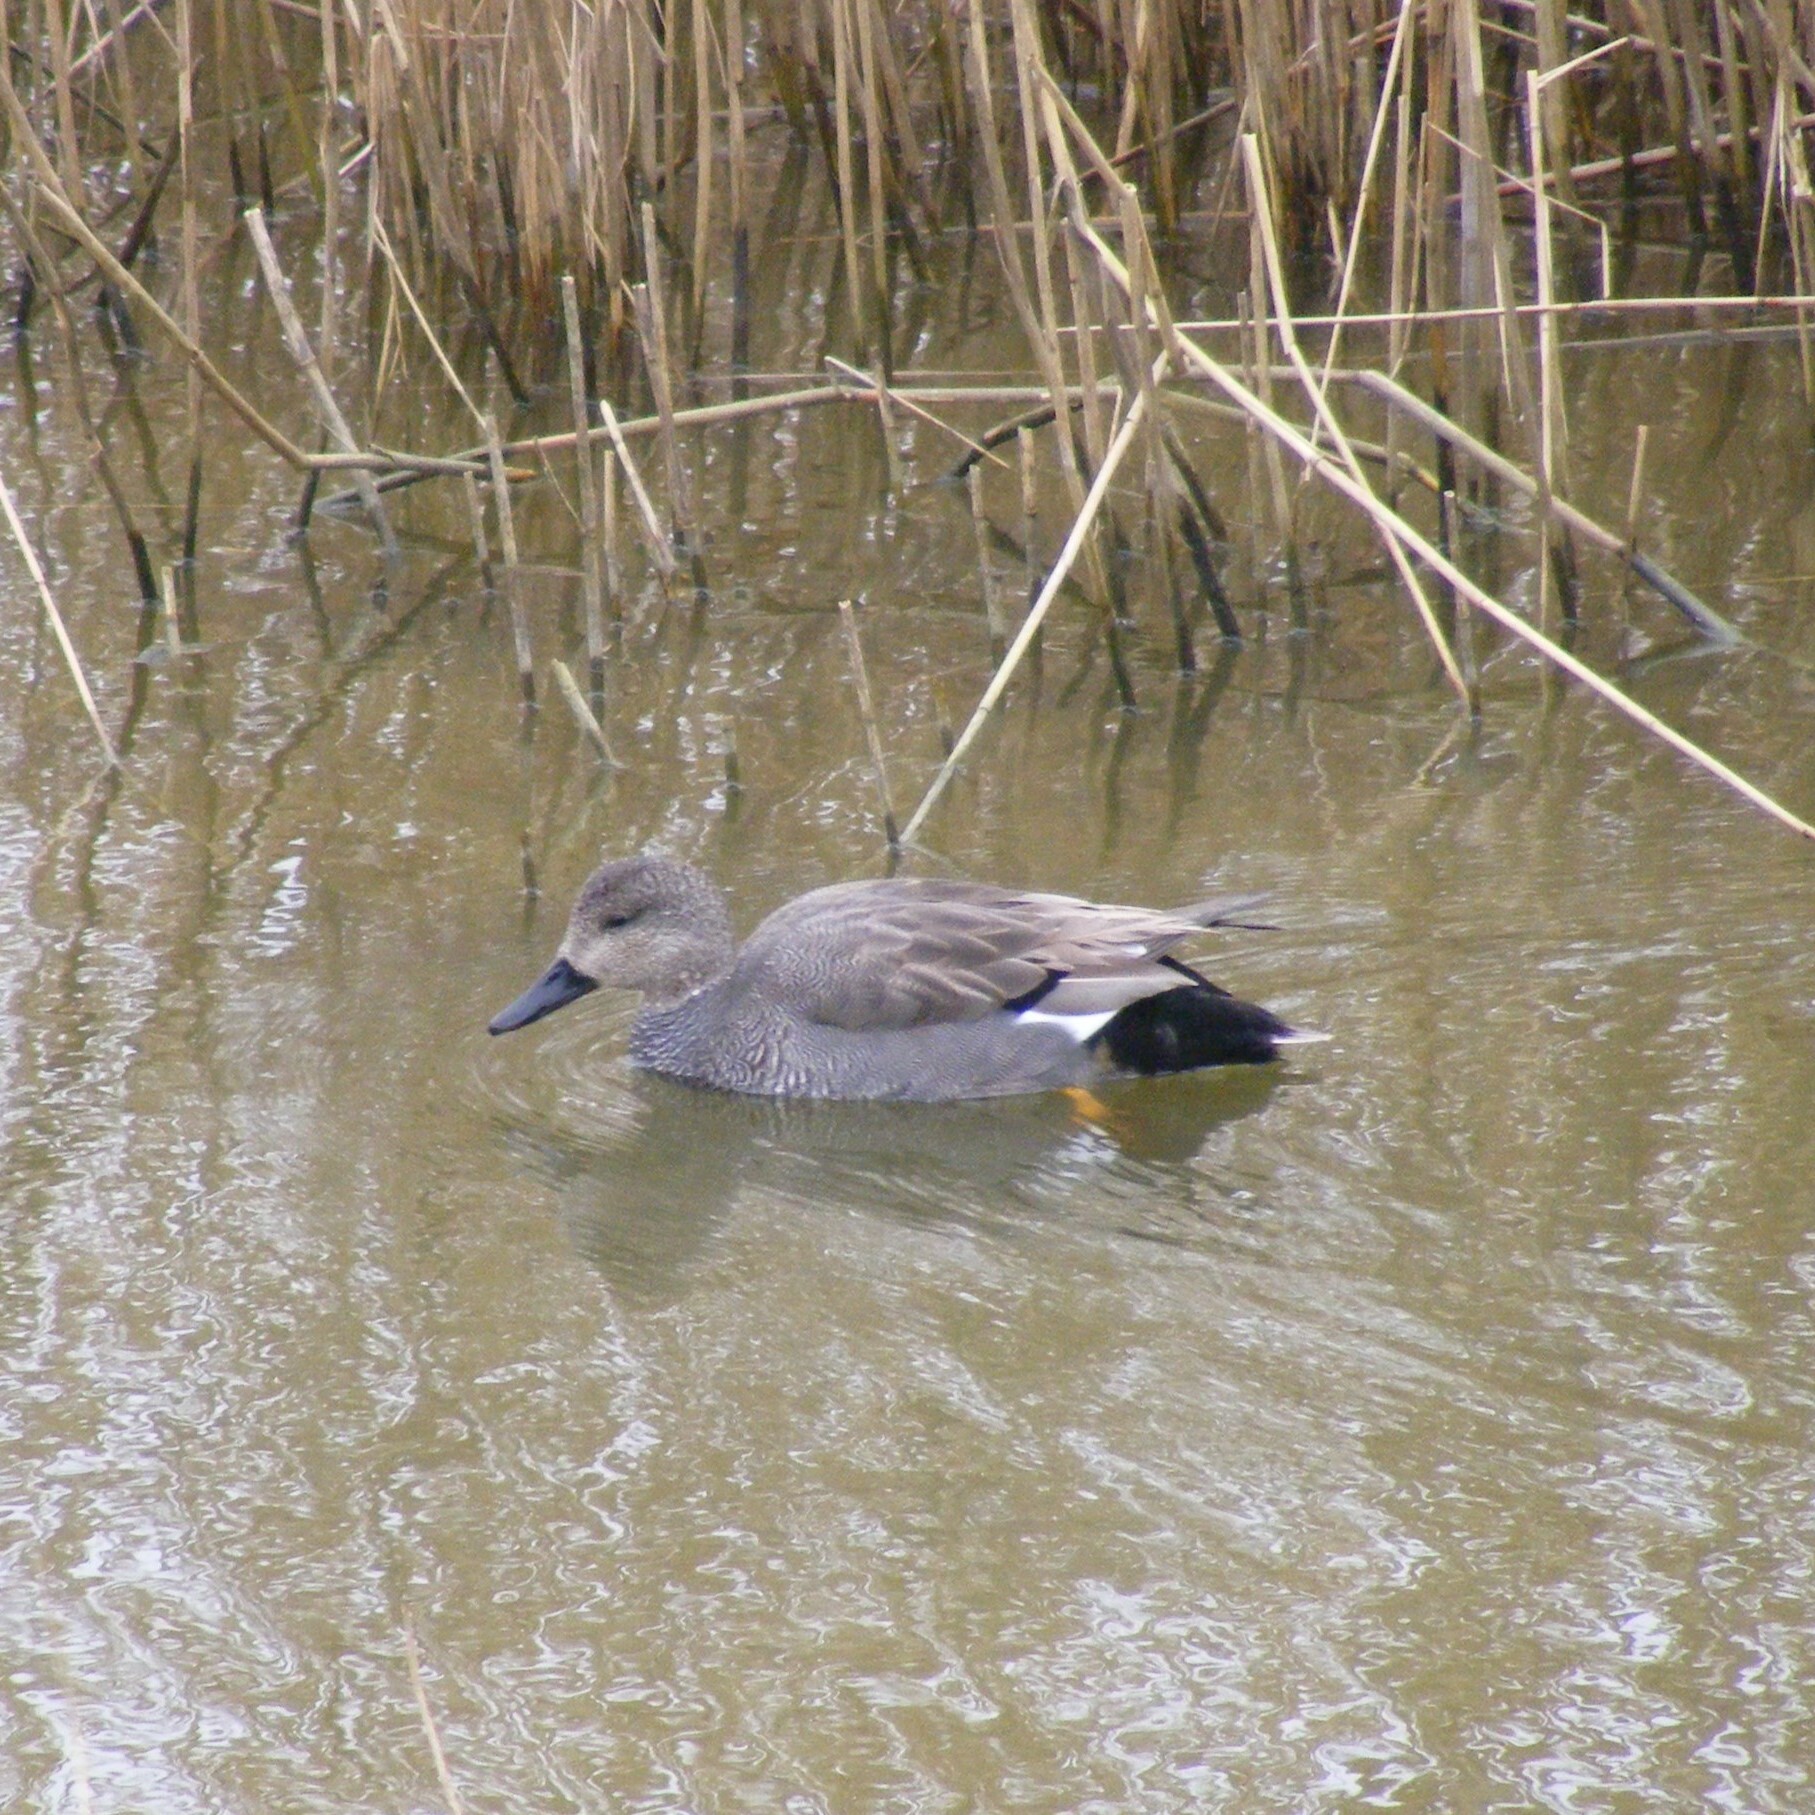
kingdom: Animalia
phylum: Chordata
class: Aves
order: Anseriformes
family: Anatidae
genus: Mareca
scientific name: Mareca strepera
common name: Gadwall
